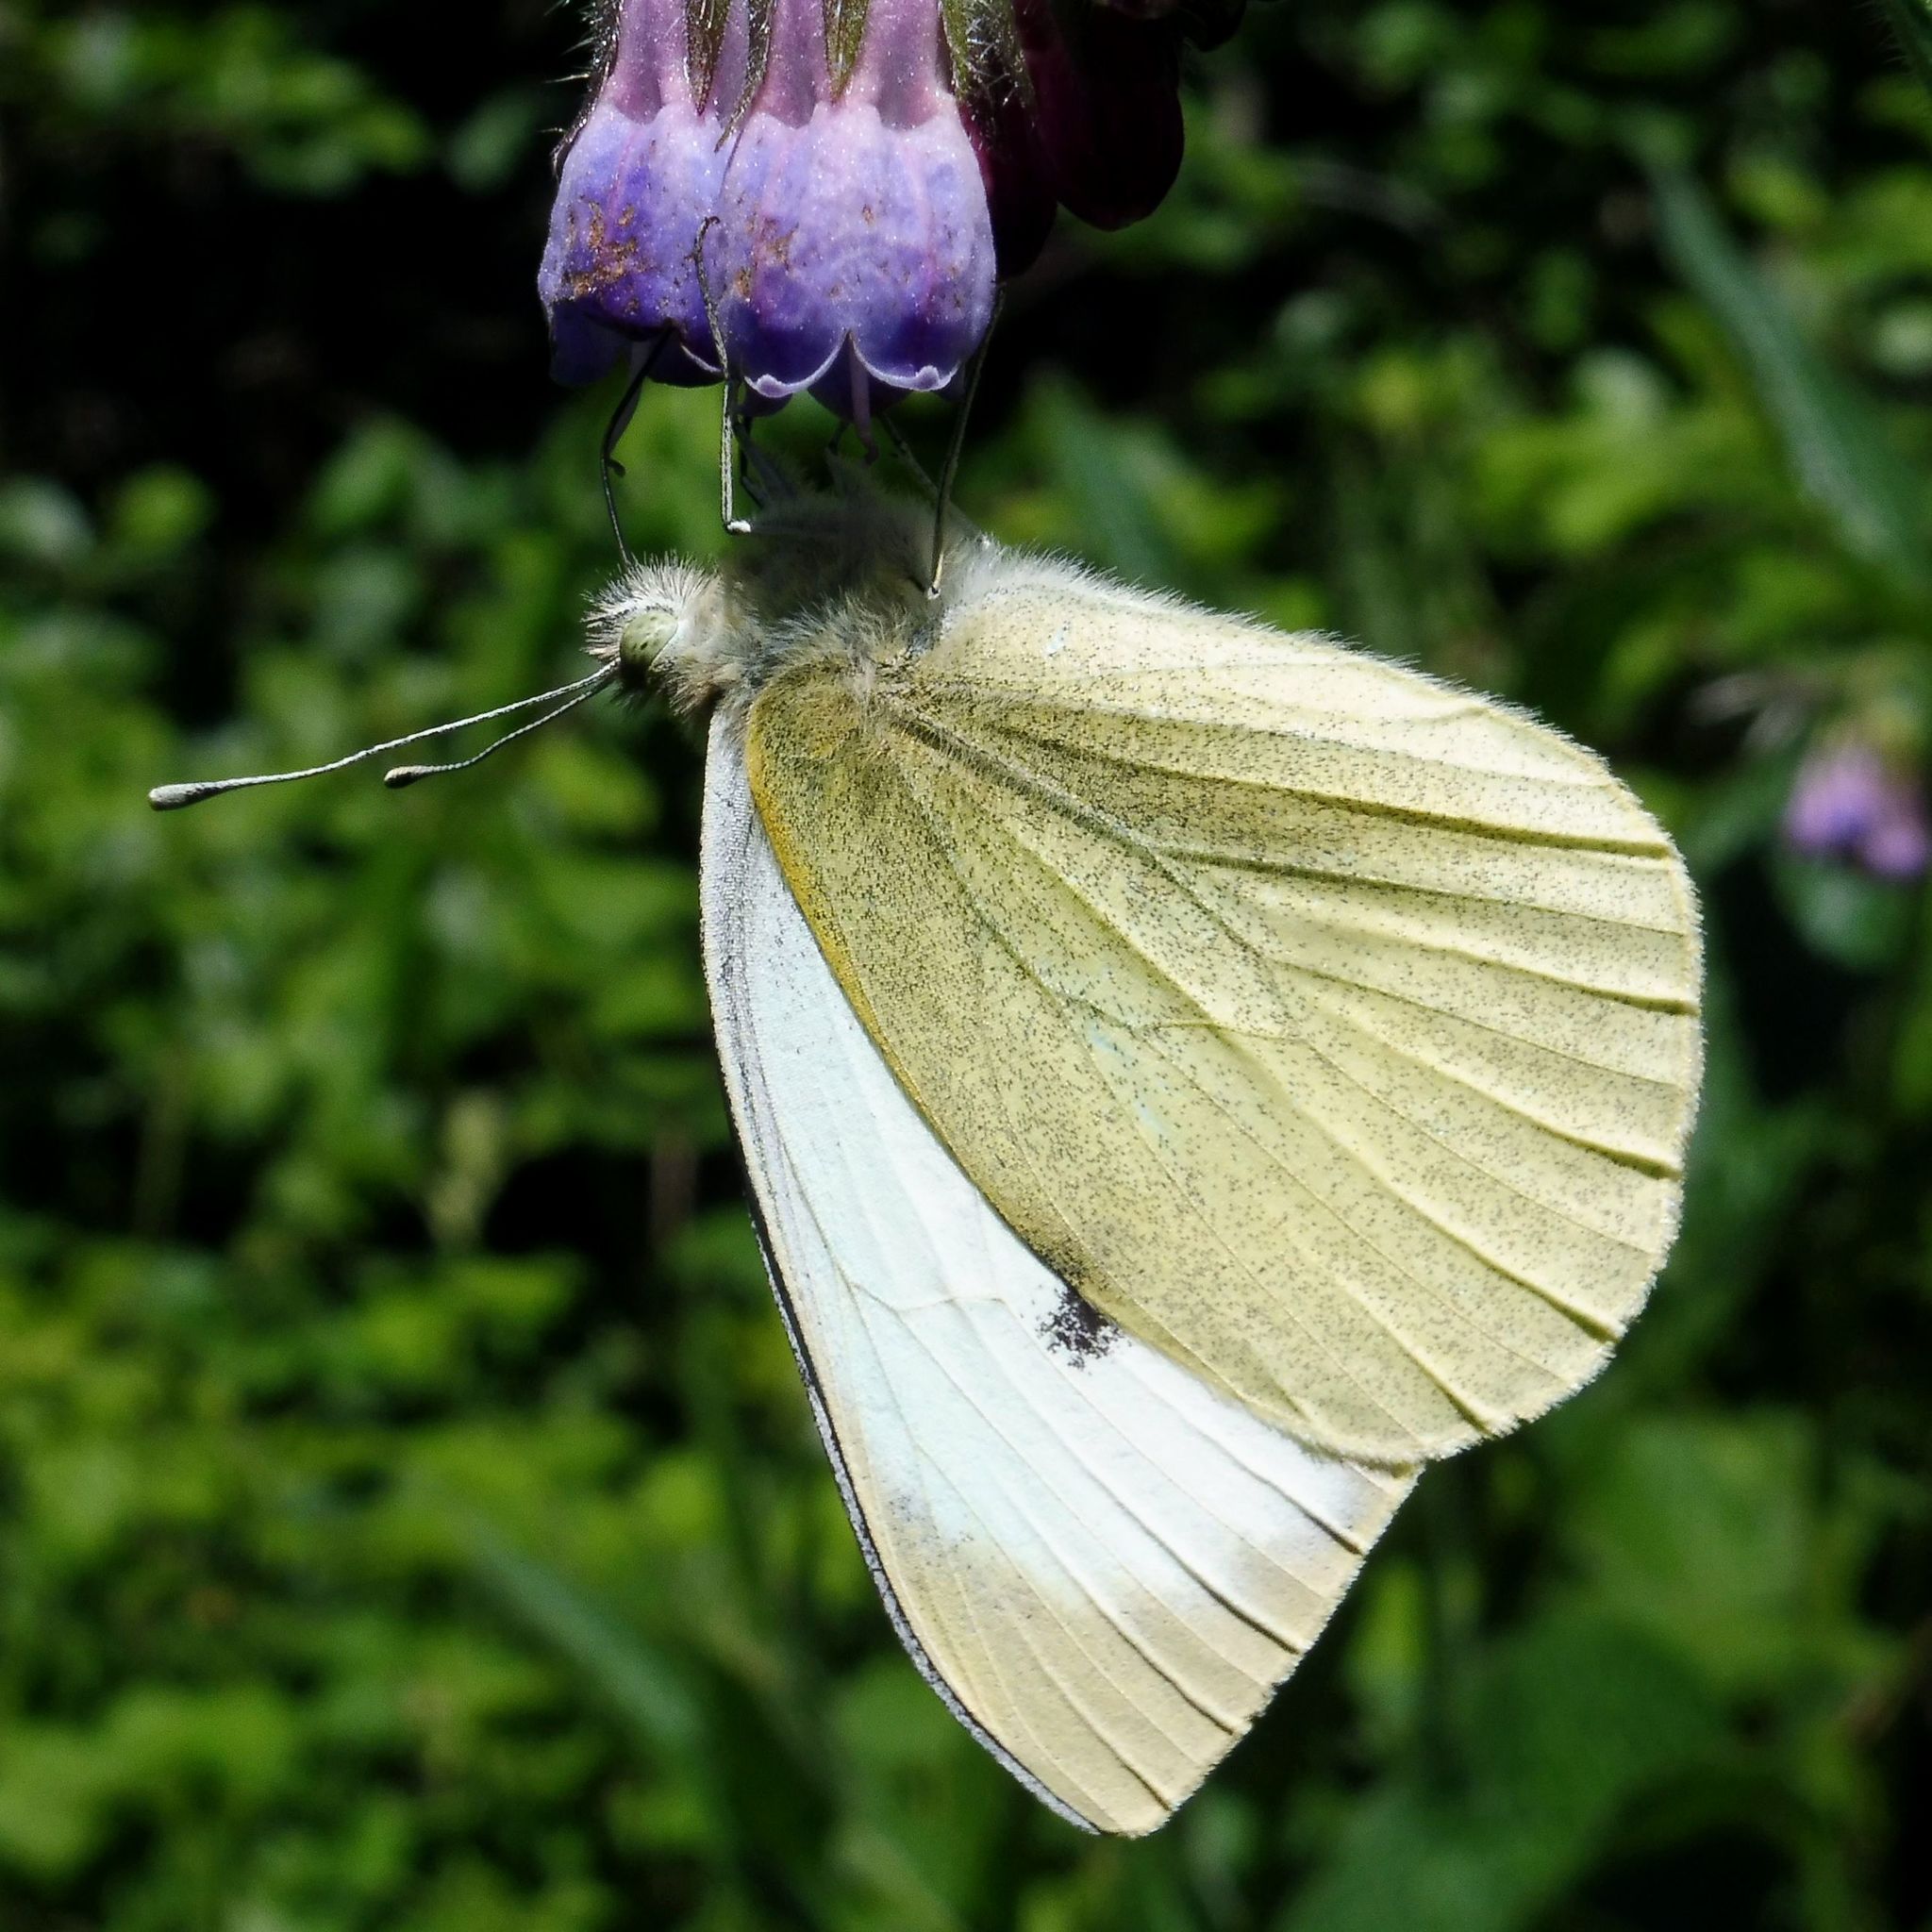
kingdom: Animalia
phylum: Arthropoda
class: Insecta
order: Lepidoptera
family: Pieridae
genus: Pieris
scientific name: Pieris brassicae
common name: Large white
